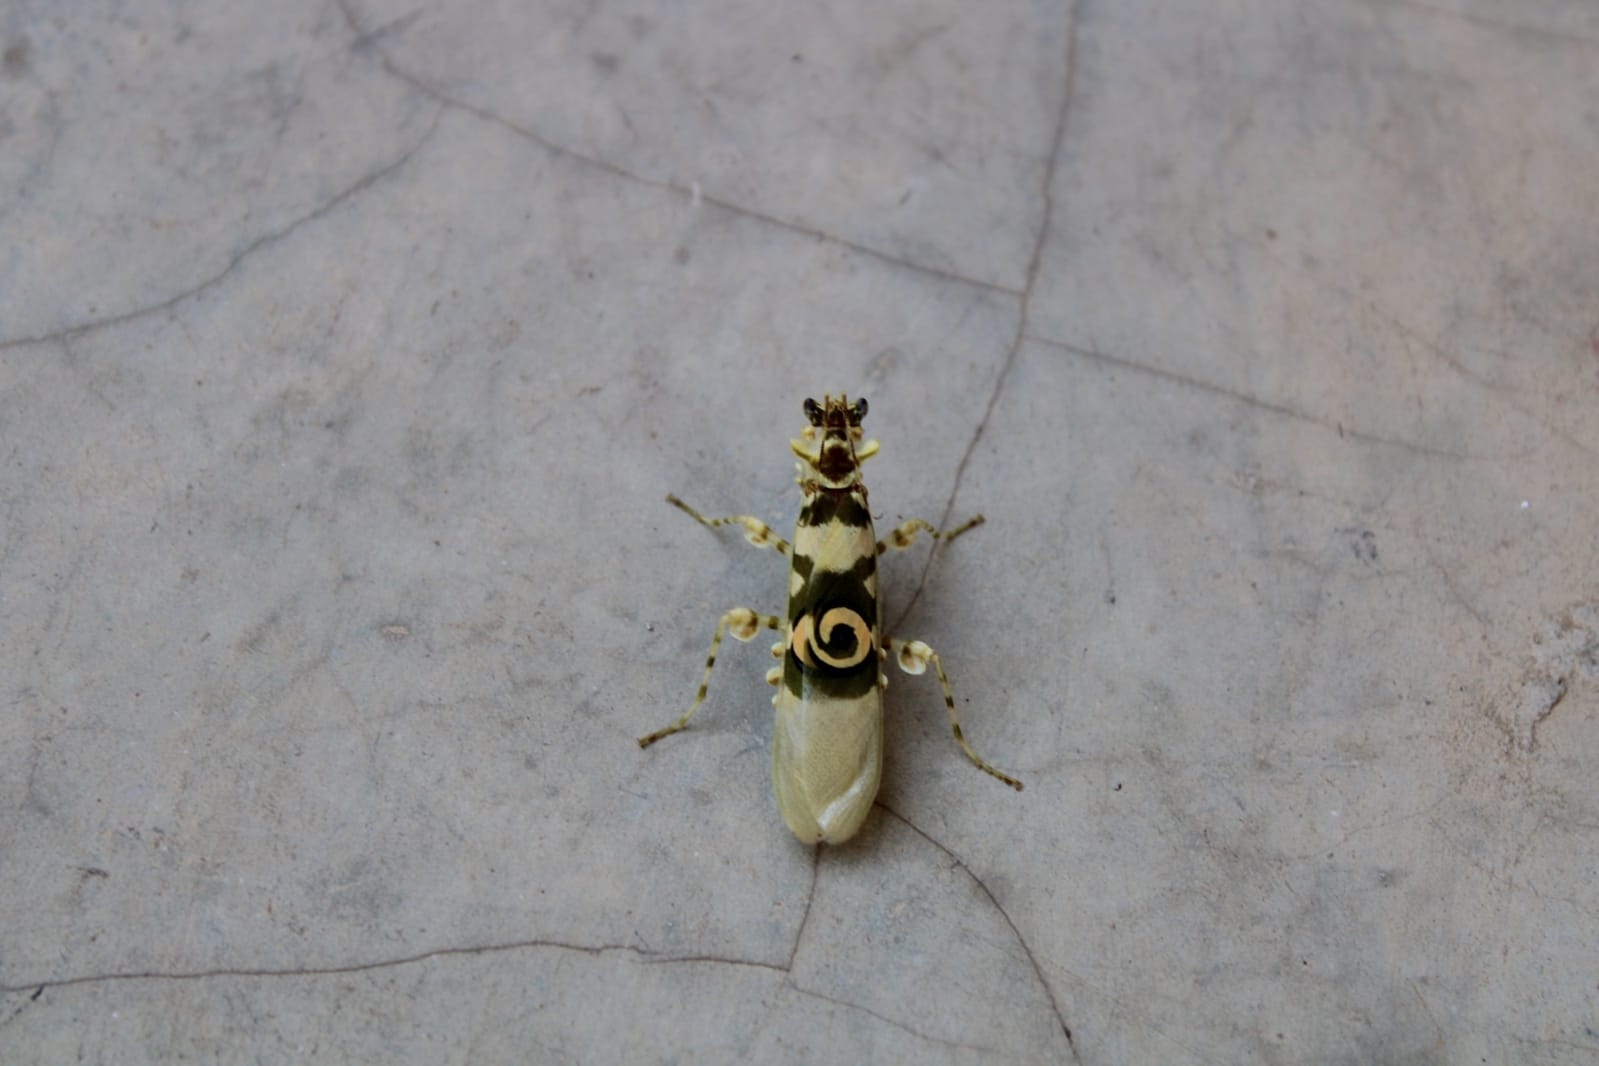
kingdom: Animalia
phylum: Arthropoda
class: Insecta
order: Mantodea
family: Hymenopodidae
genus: Pseudocreobotra
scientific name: Pseudocreobotra ocellata
